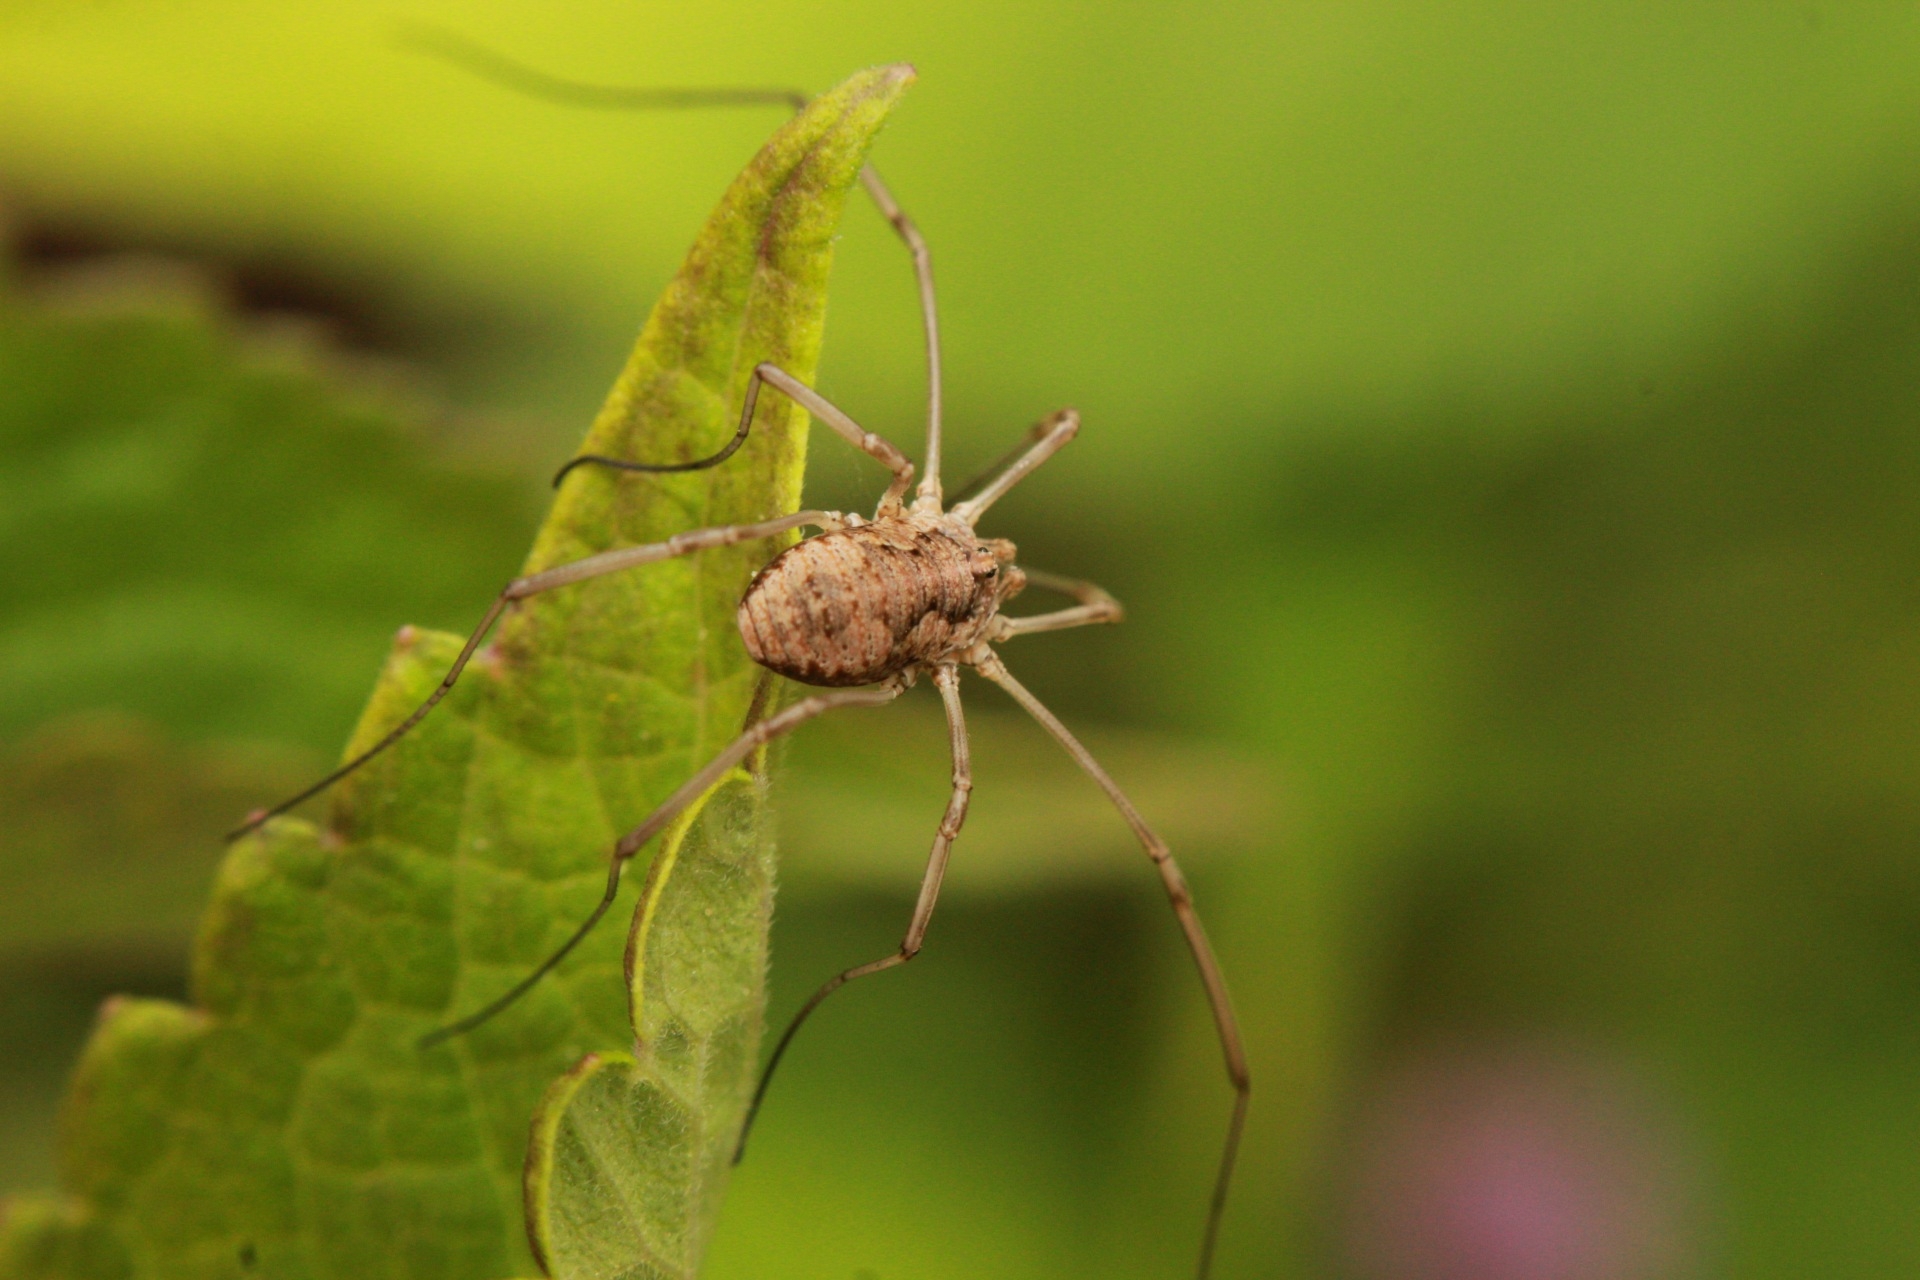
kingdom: Animalia
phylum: Arthropoda
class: Arachnida
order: Opiliones
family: Phalangiidae
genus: Phalangium
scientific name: Phalangium opilio
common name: Daddy longleg
